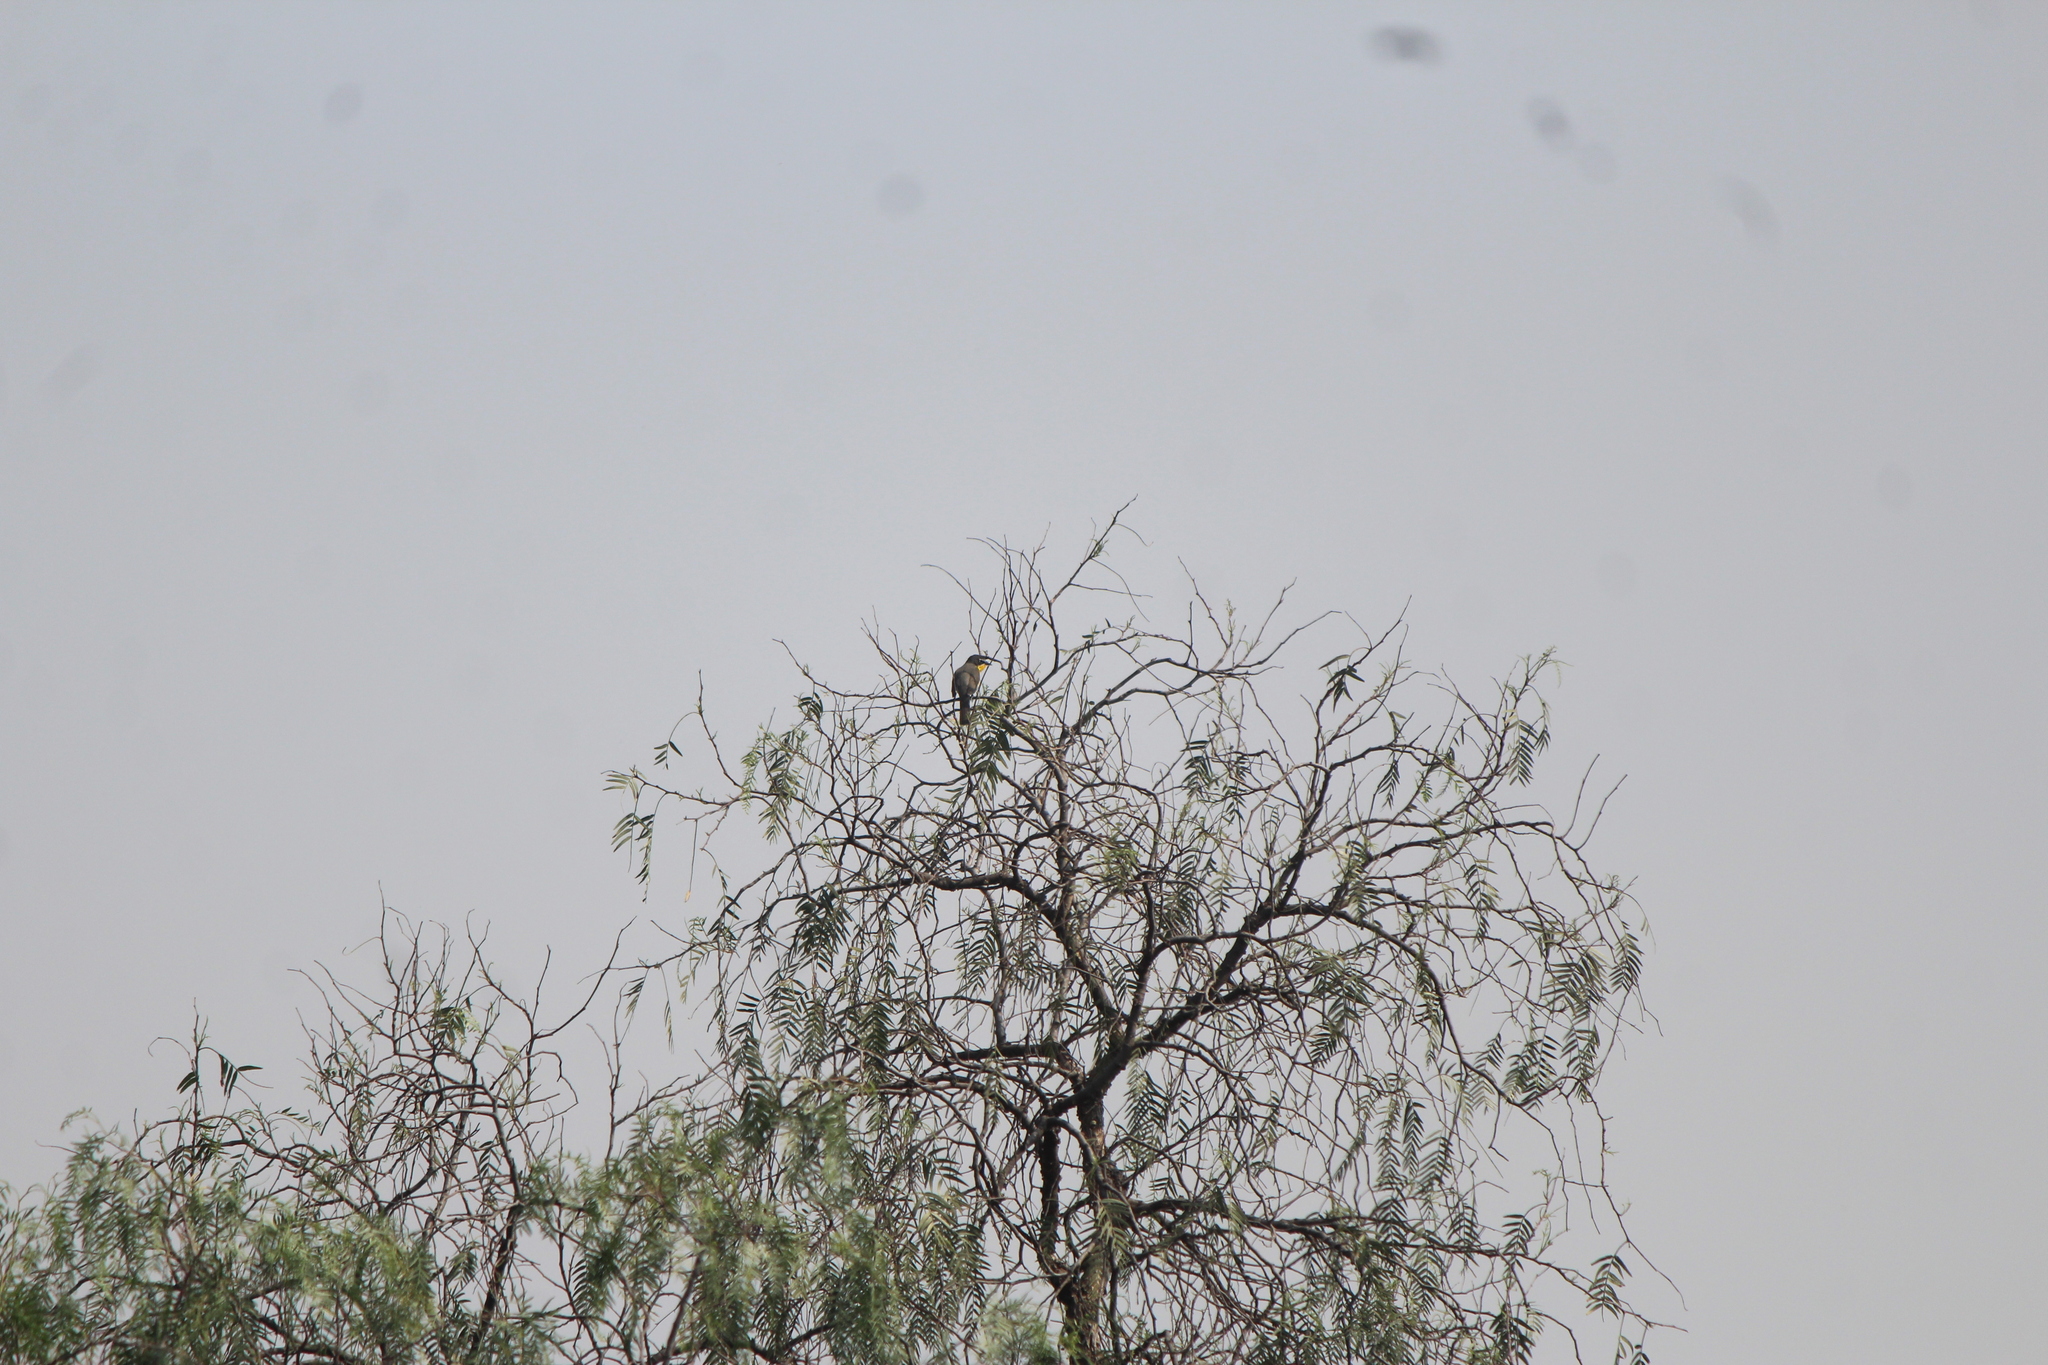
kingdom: Animalia
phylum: Chordata
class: Aves
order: Passeriformes
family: Parulidae
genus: Icteria
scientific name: Icteria virens
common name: Yellow-breasted chat
